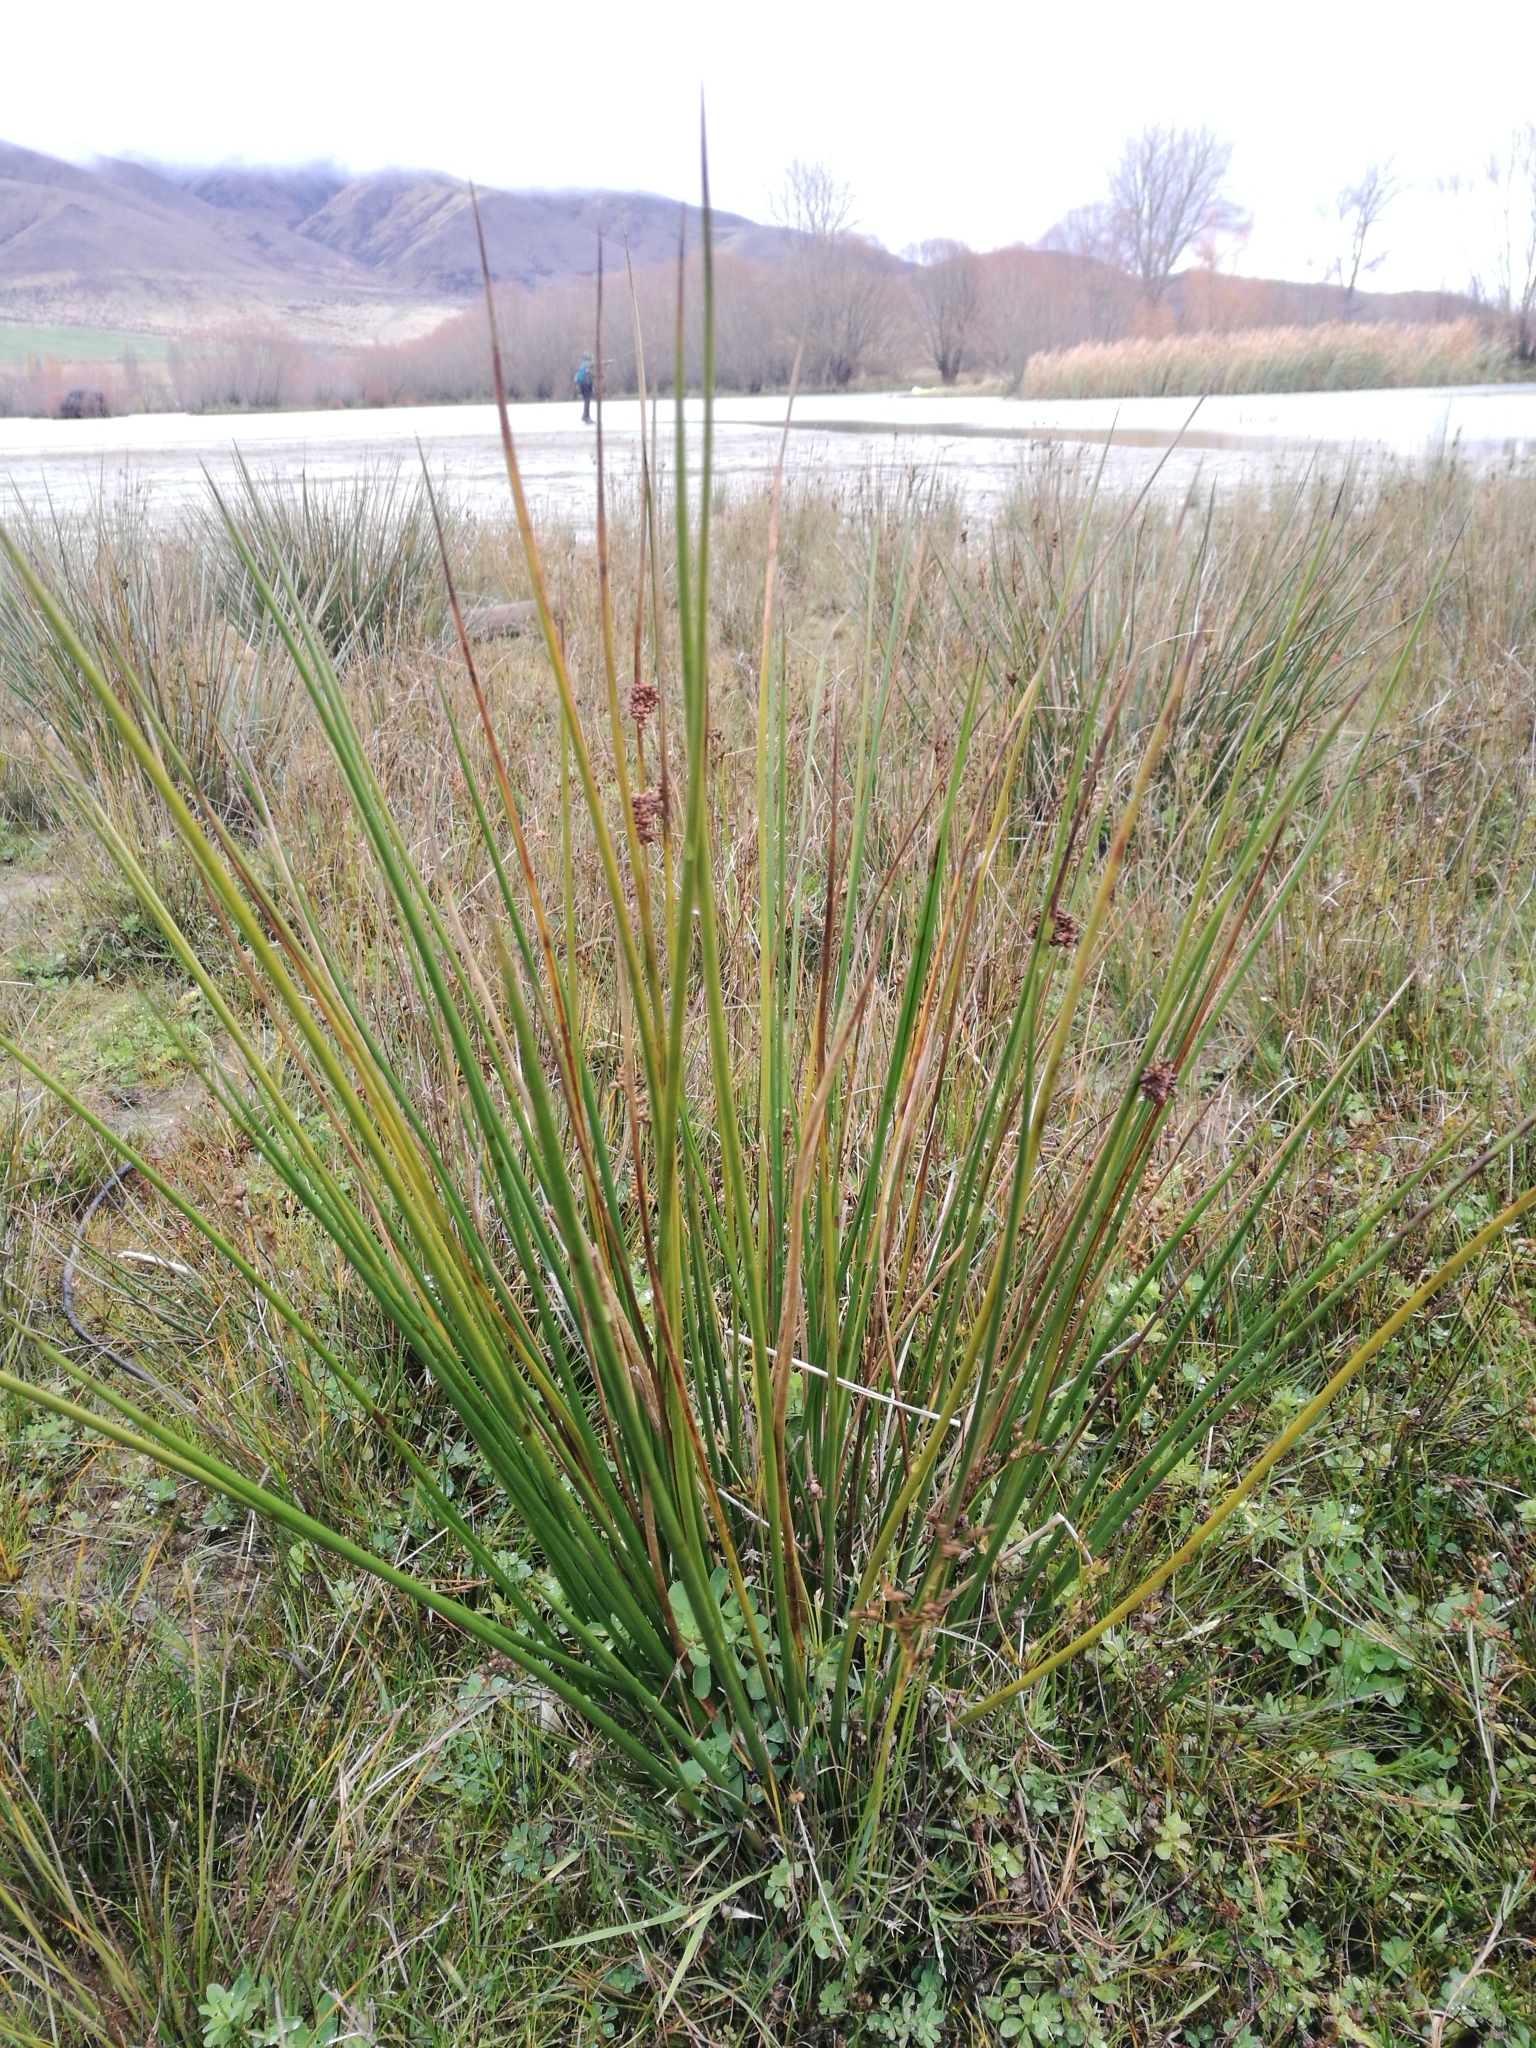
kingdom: Plantae
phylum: Tracheophyta
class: Liliopsida
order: Poales
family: Cyperaceae
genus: Ficinia
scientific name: Ficinia nodosa
